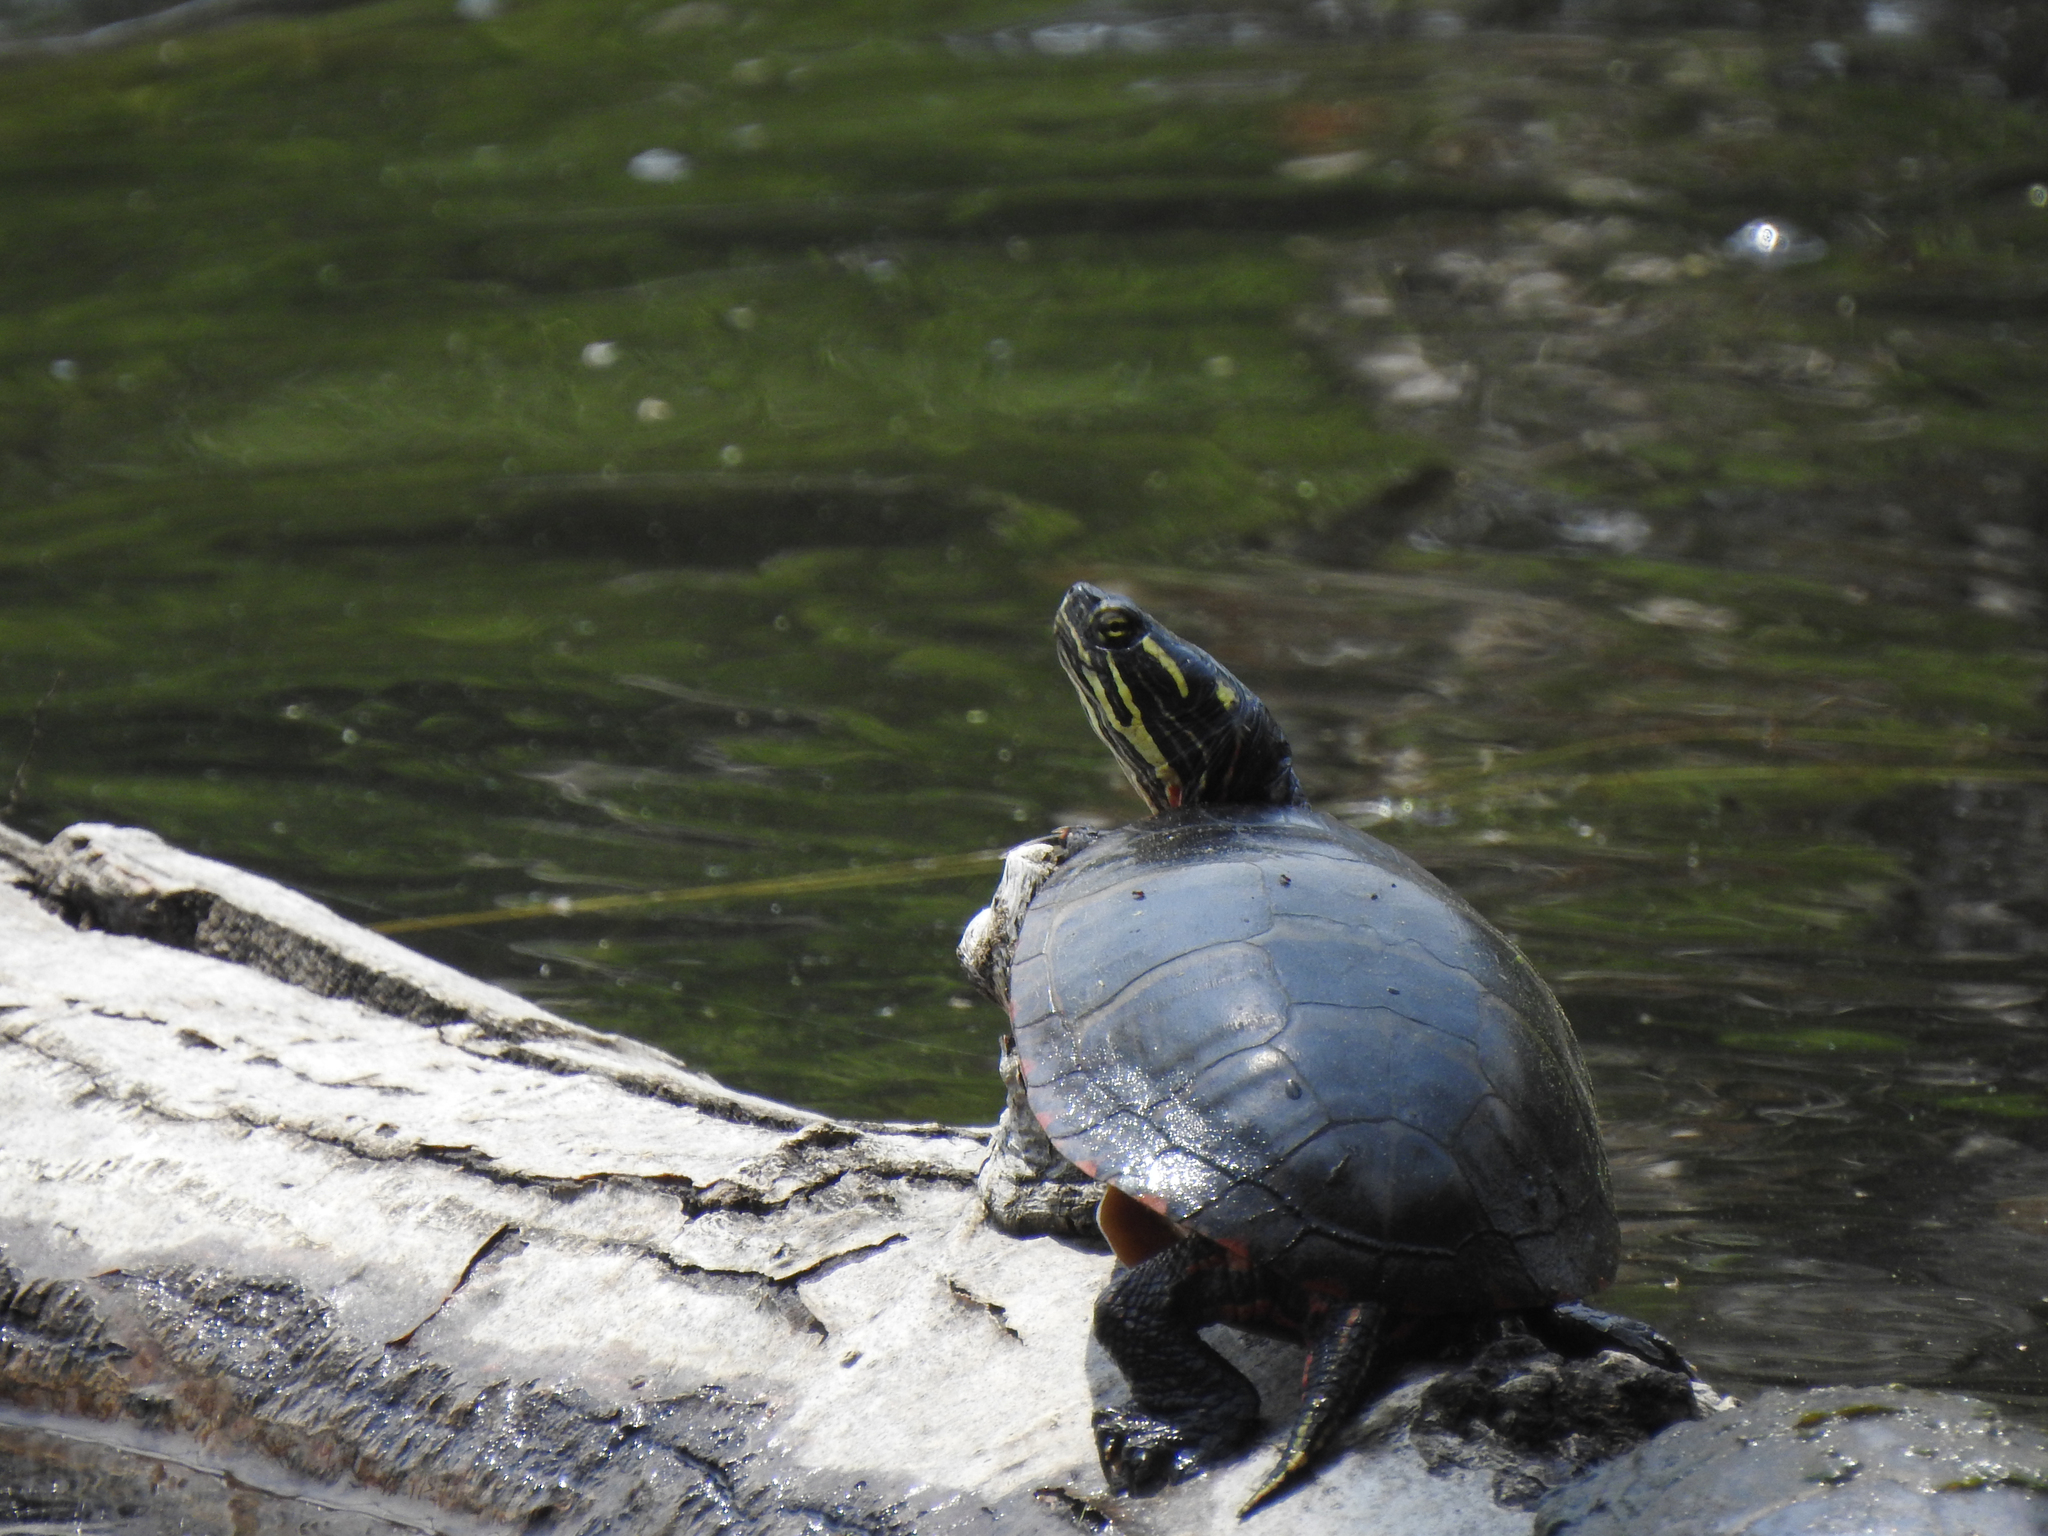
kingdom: Animalia
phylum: Chordata
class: Testudines
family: Emydidae
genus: Chrysemys
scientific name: Chrysemys picta
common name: Painted turtle
